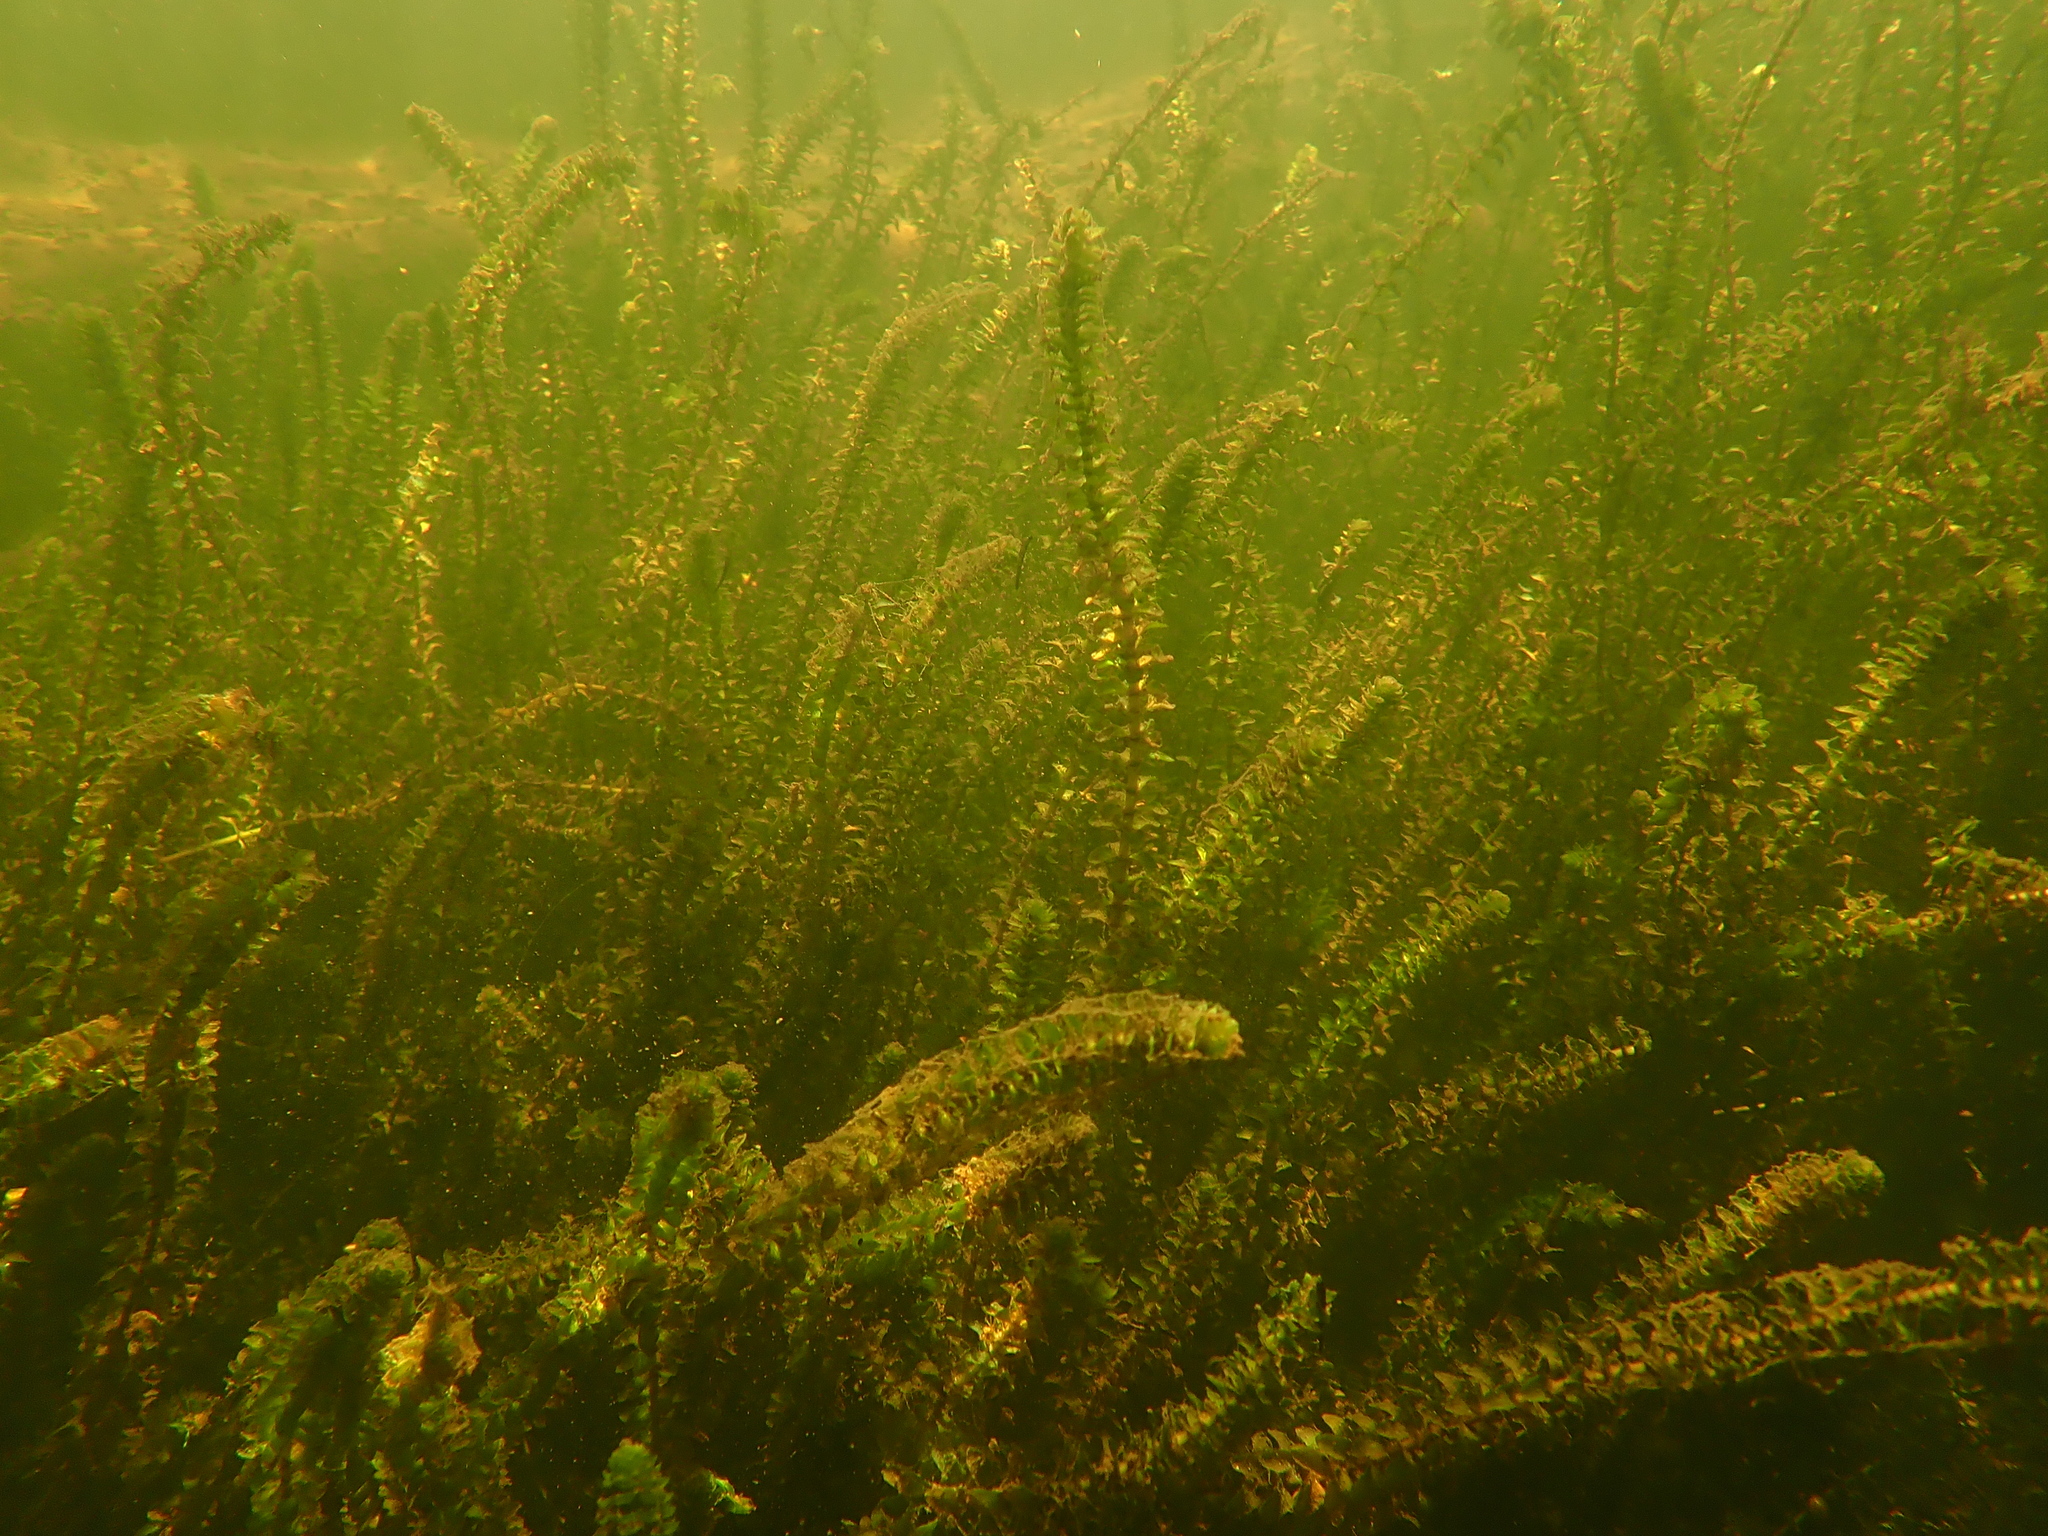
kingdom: Plantae
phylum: Tracheophyta
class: Liliopsida
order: Alismatales
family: Hydrocharitaceae
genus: Elodea
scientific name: Elodea canadensis
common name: Canadian waterweed
